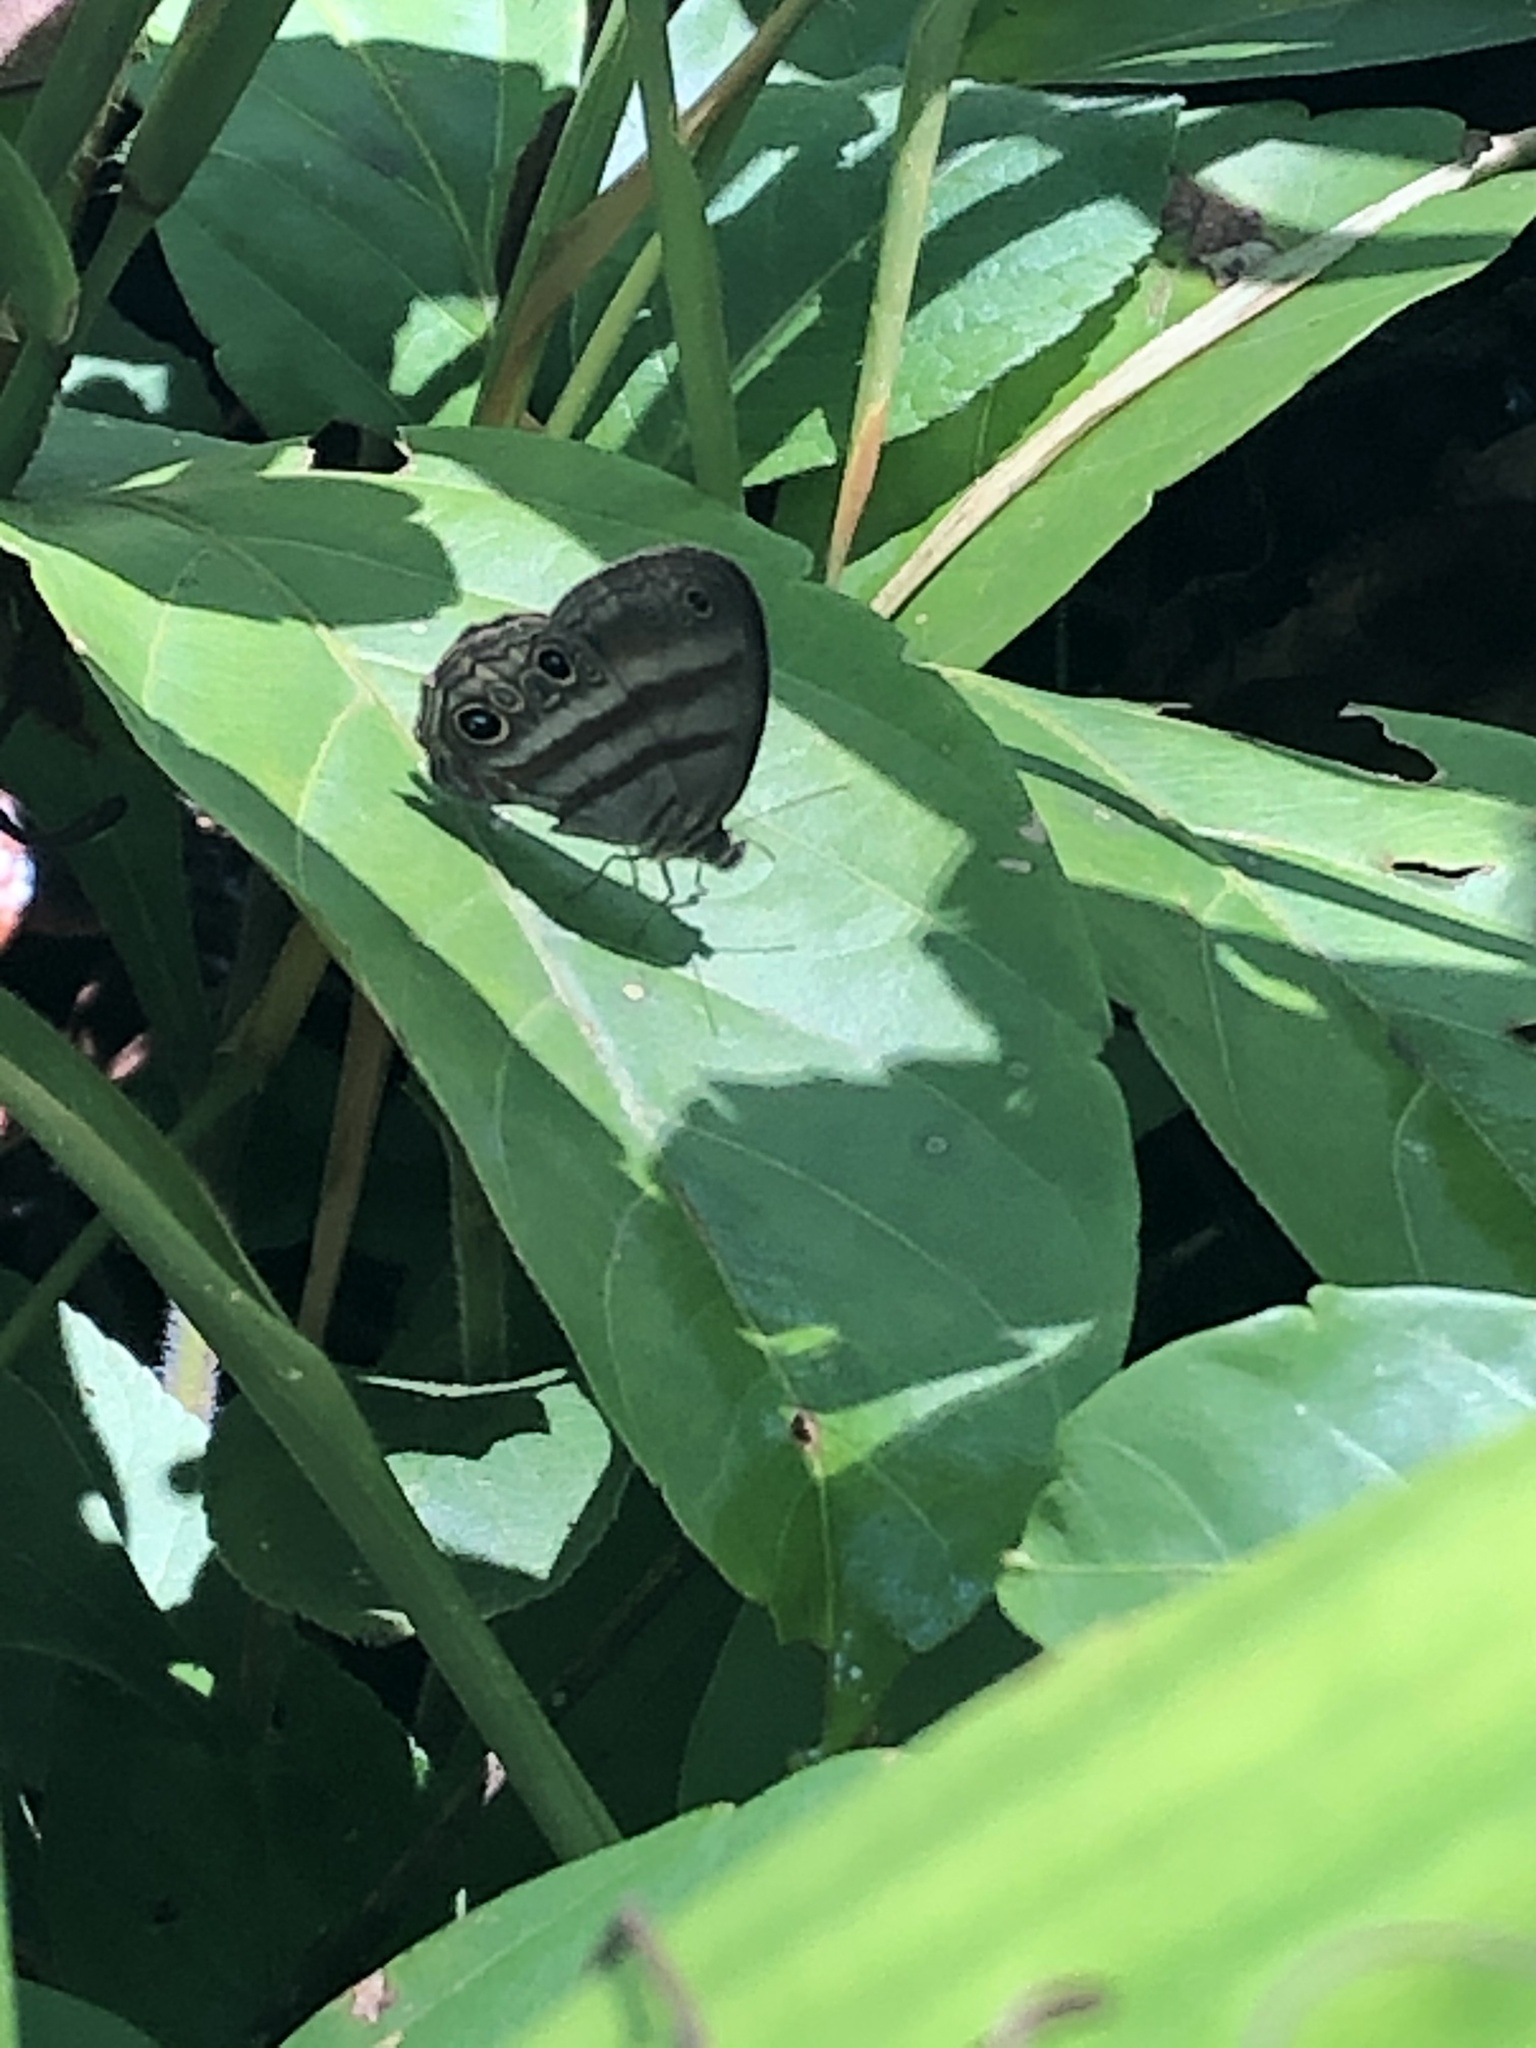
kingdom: Animalia
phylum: Arthropoda
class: Insecta
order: Lepidoptera
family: Nymphalidae
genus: Modica
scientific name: Modica
